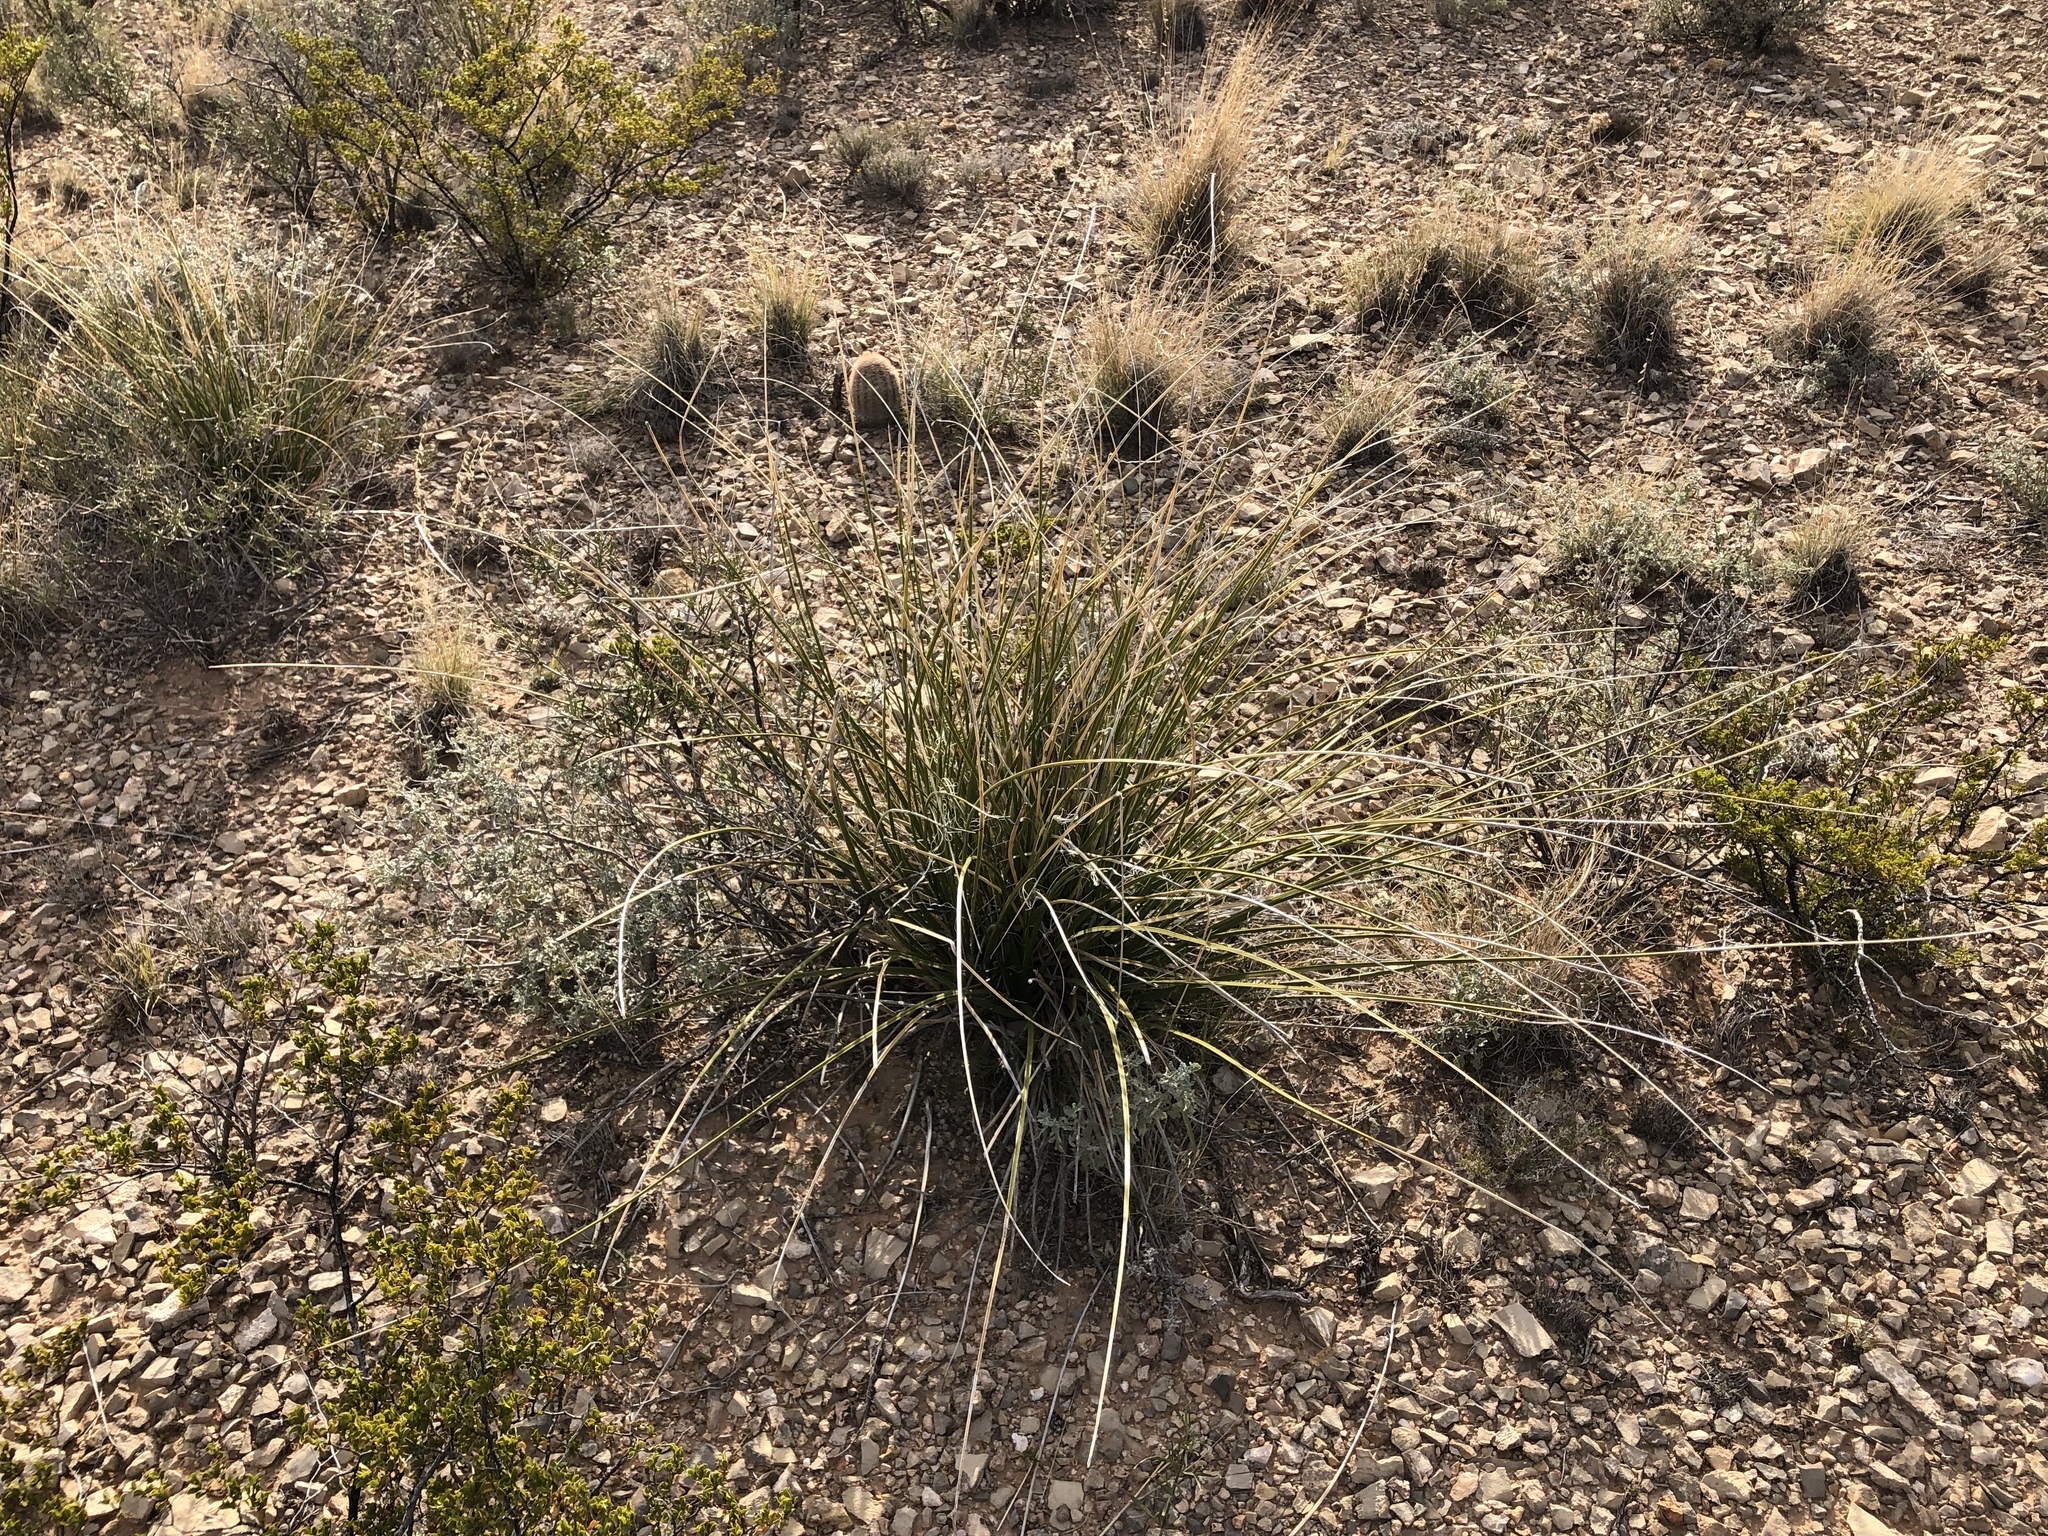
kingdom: Plantae
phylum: Tracheophyta
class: Liliopsida
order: Asparagales
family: Asparagaceae
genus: Nolina
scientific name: Nolina texana
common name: Texas sacahuiste
